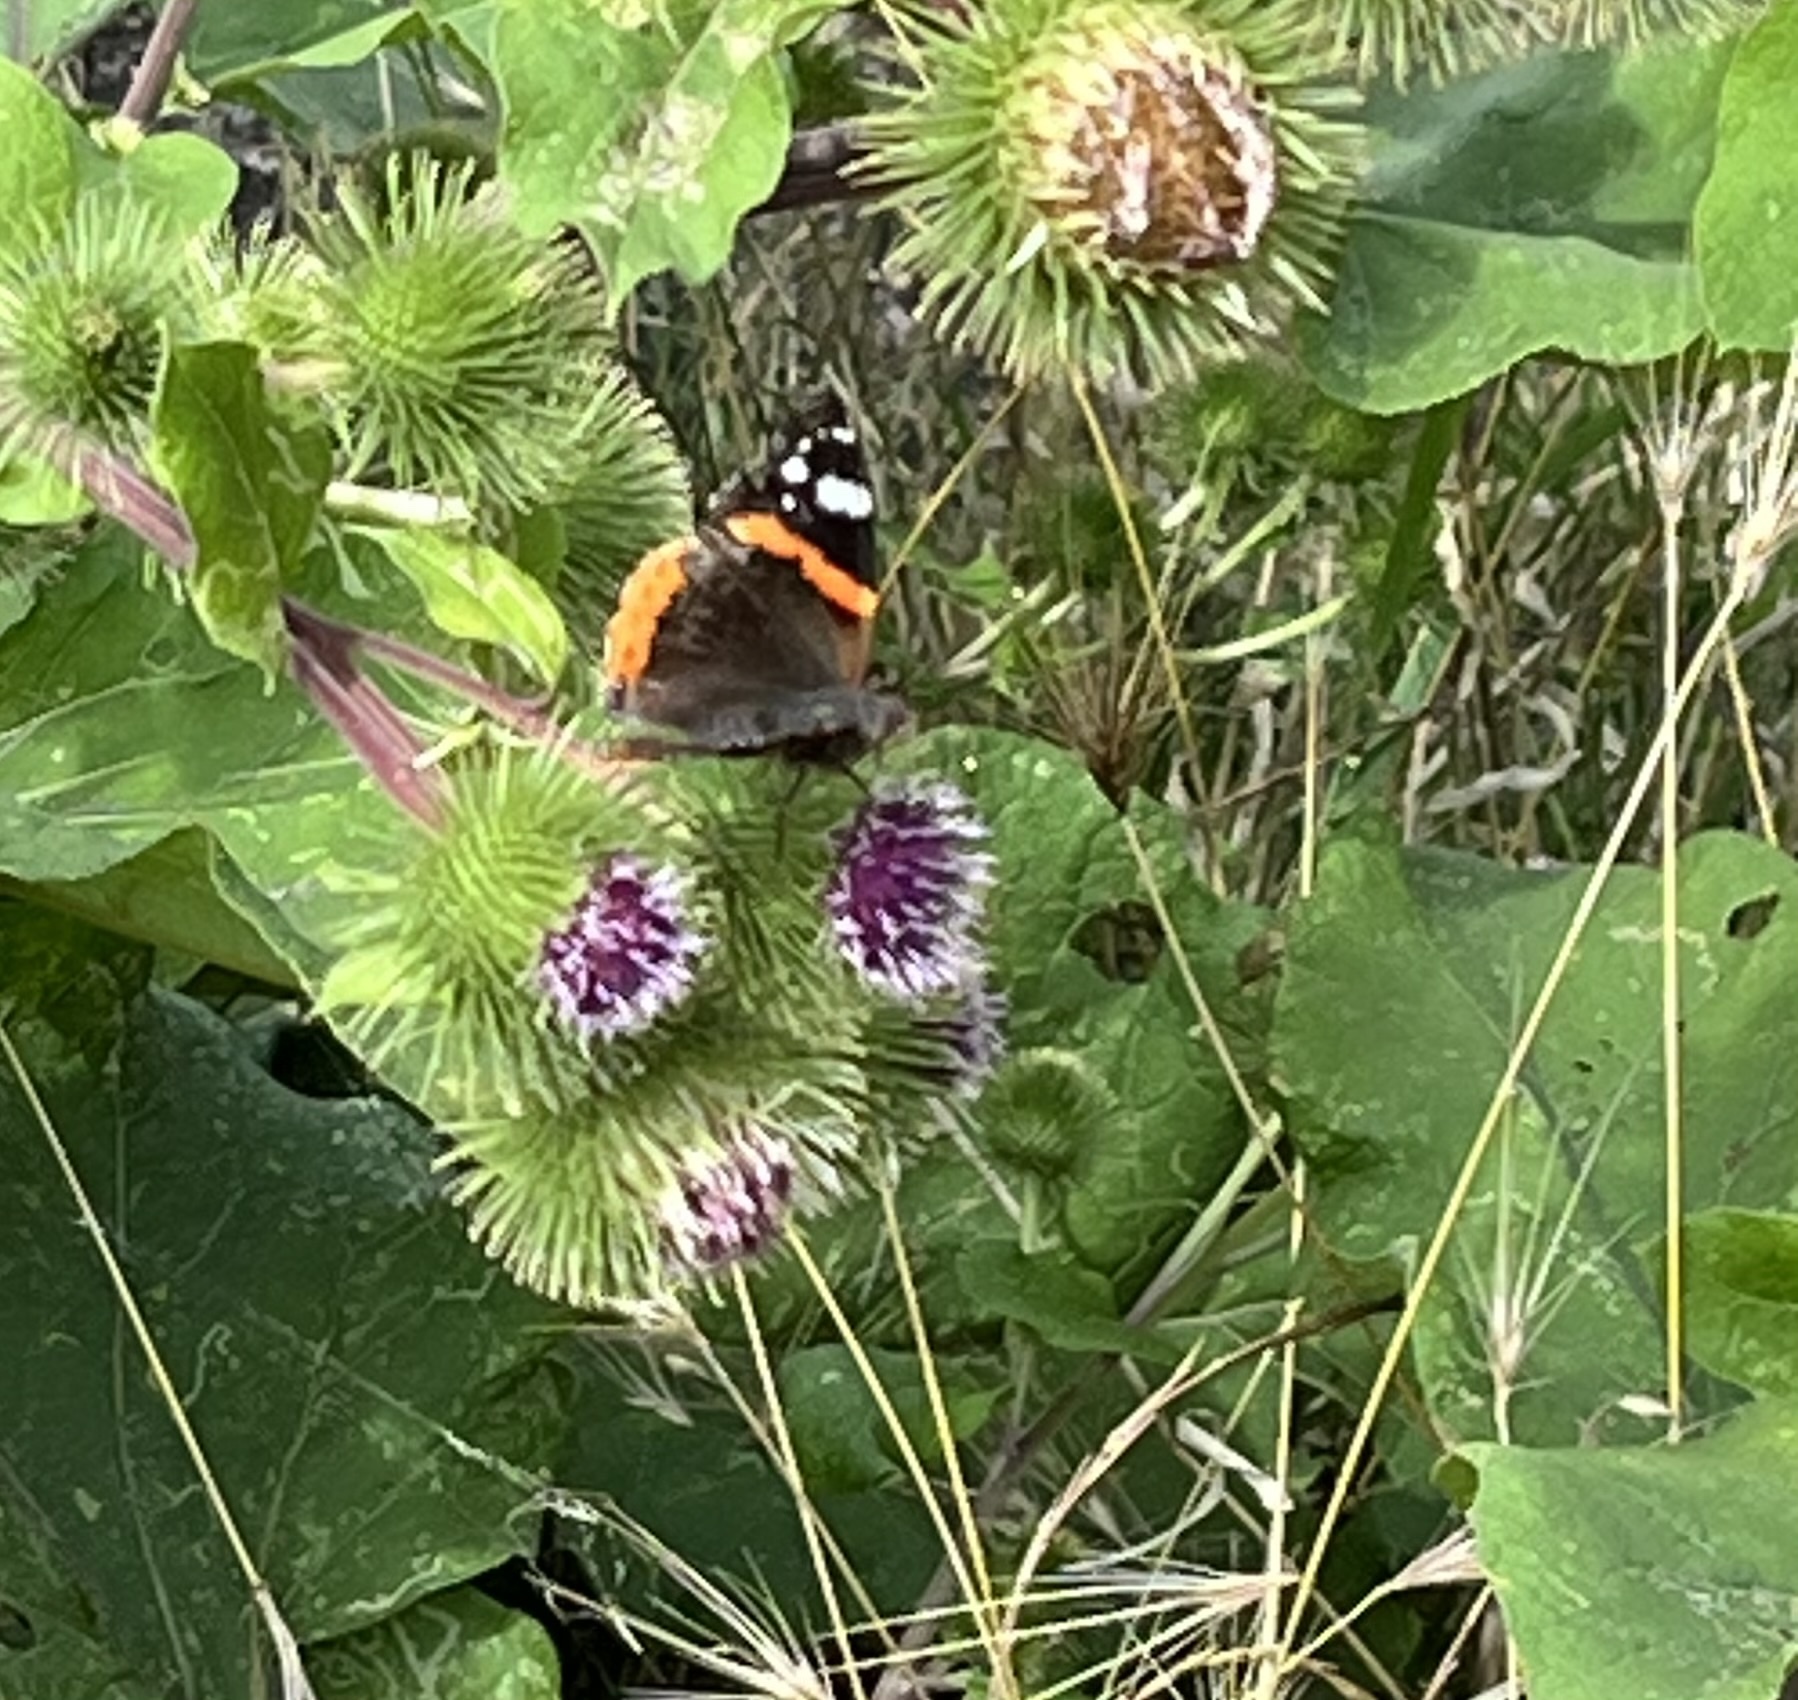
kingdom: Animalia
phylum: Arthropoda
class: Insecta
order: Lepidoptera
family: Nymphalidae
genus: Vanessa
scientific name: Vanessa atalanta
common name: Red admiral
